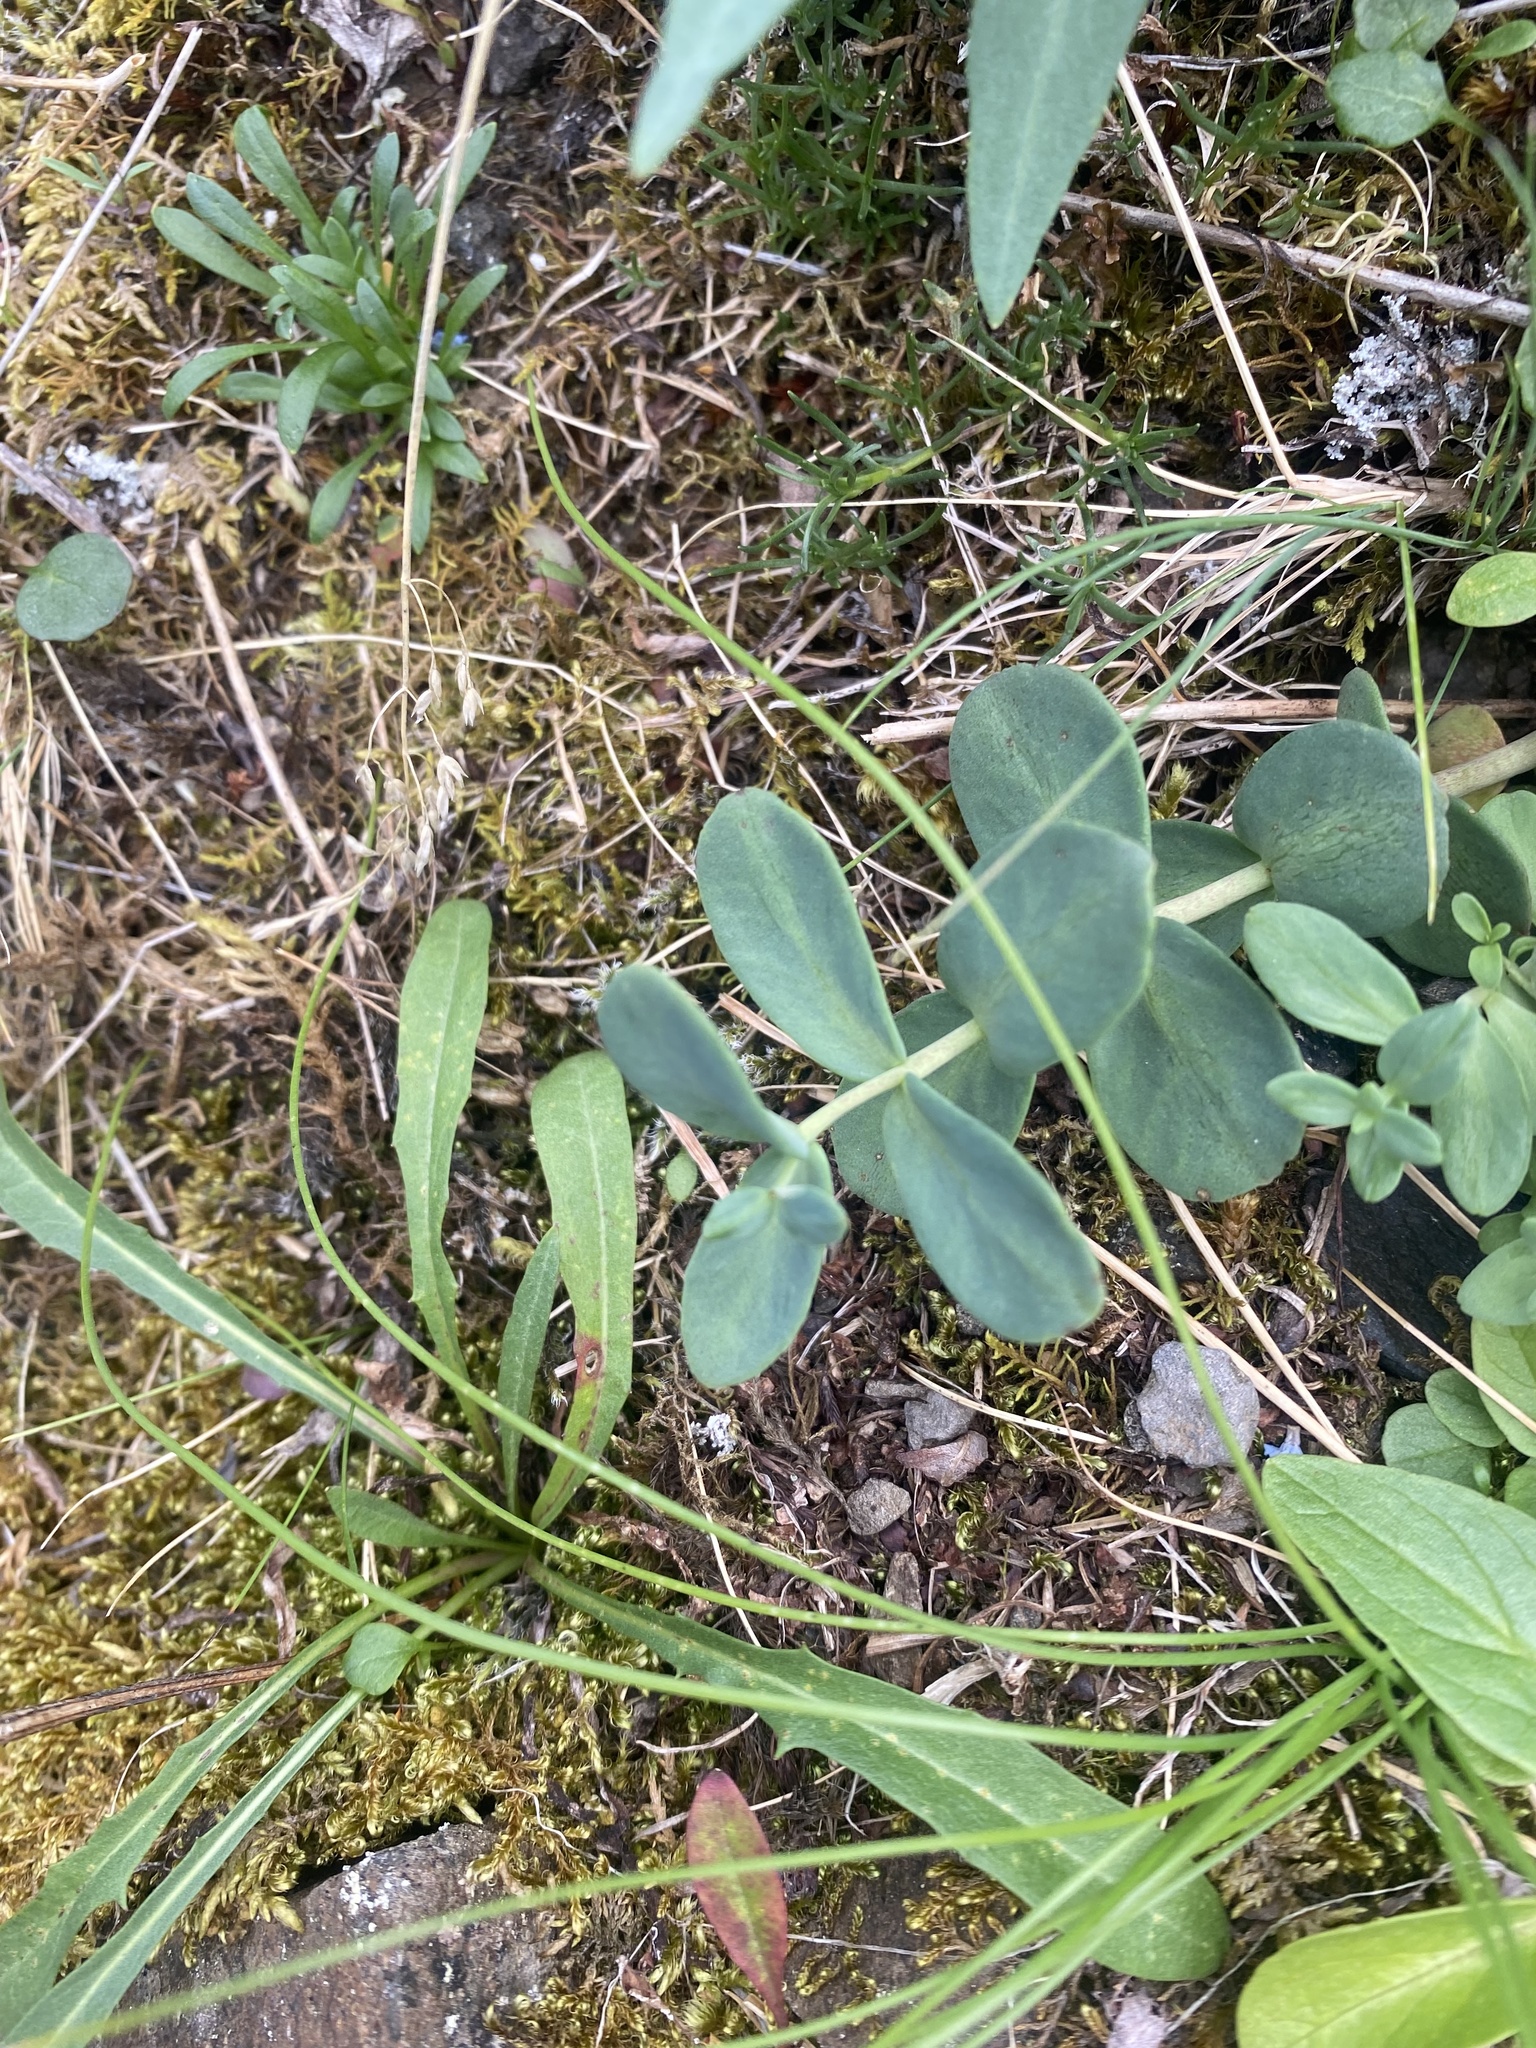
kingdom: Plantae
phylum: Tracheophyta
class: Magnoliopsida
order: Saxifragales
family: Crassulaceae
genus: Rhodiola
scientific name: Rhodiola rosea
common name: Roseroot
